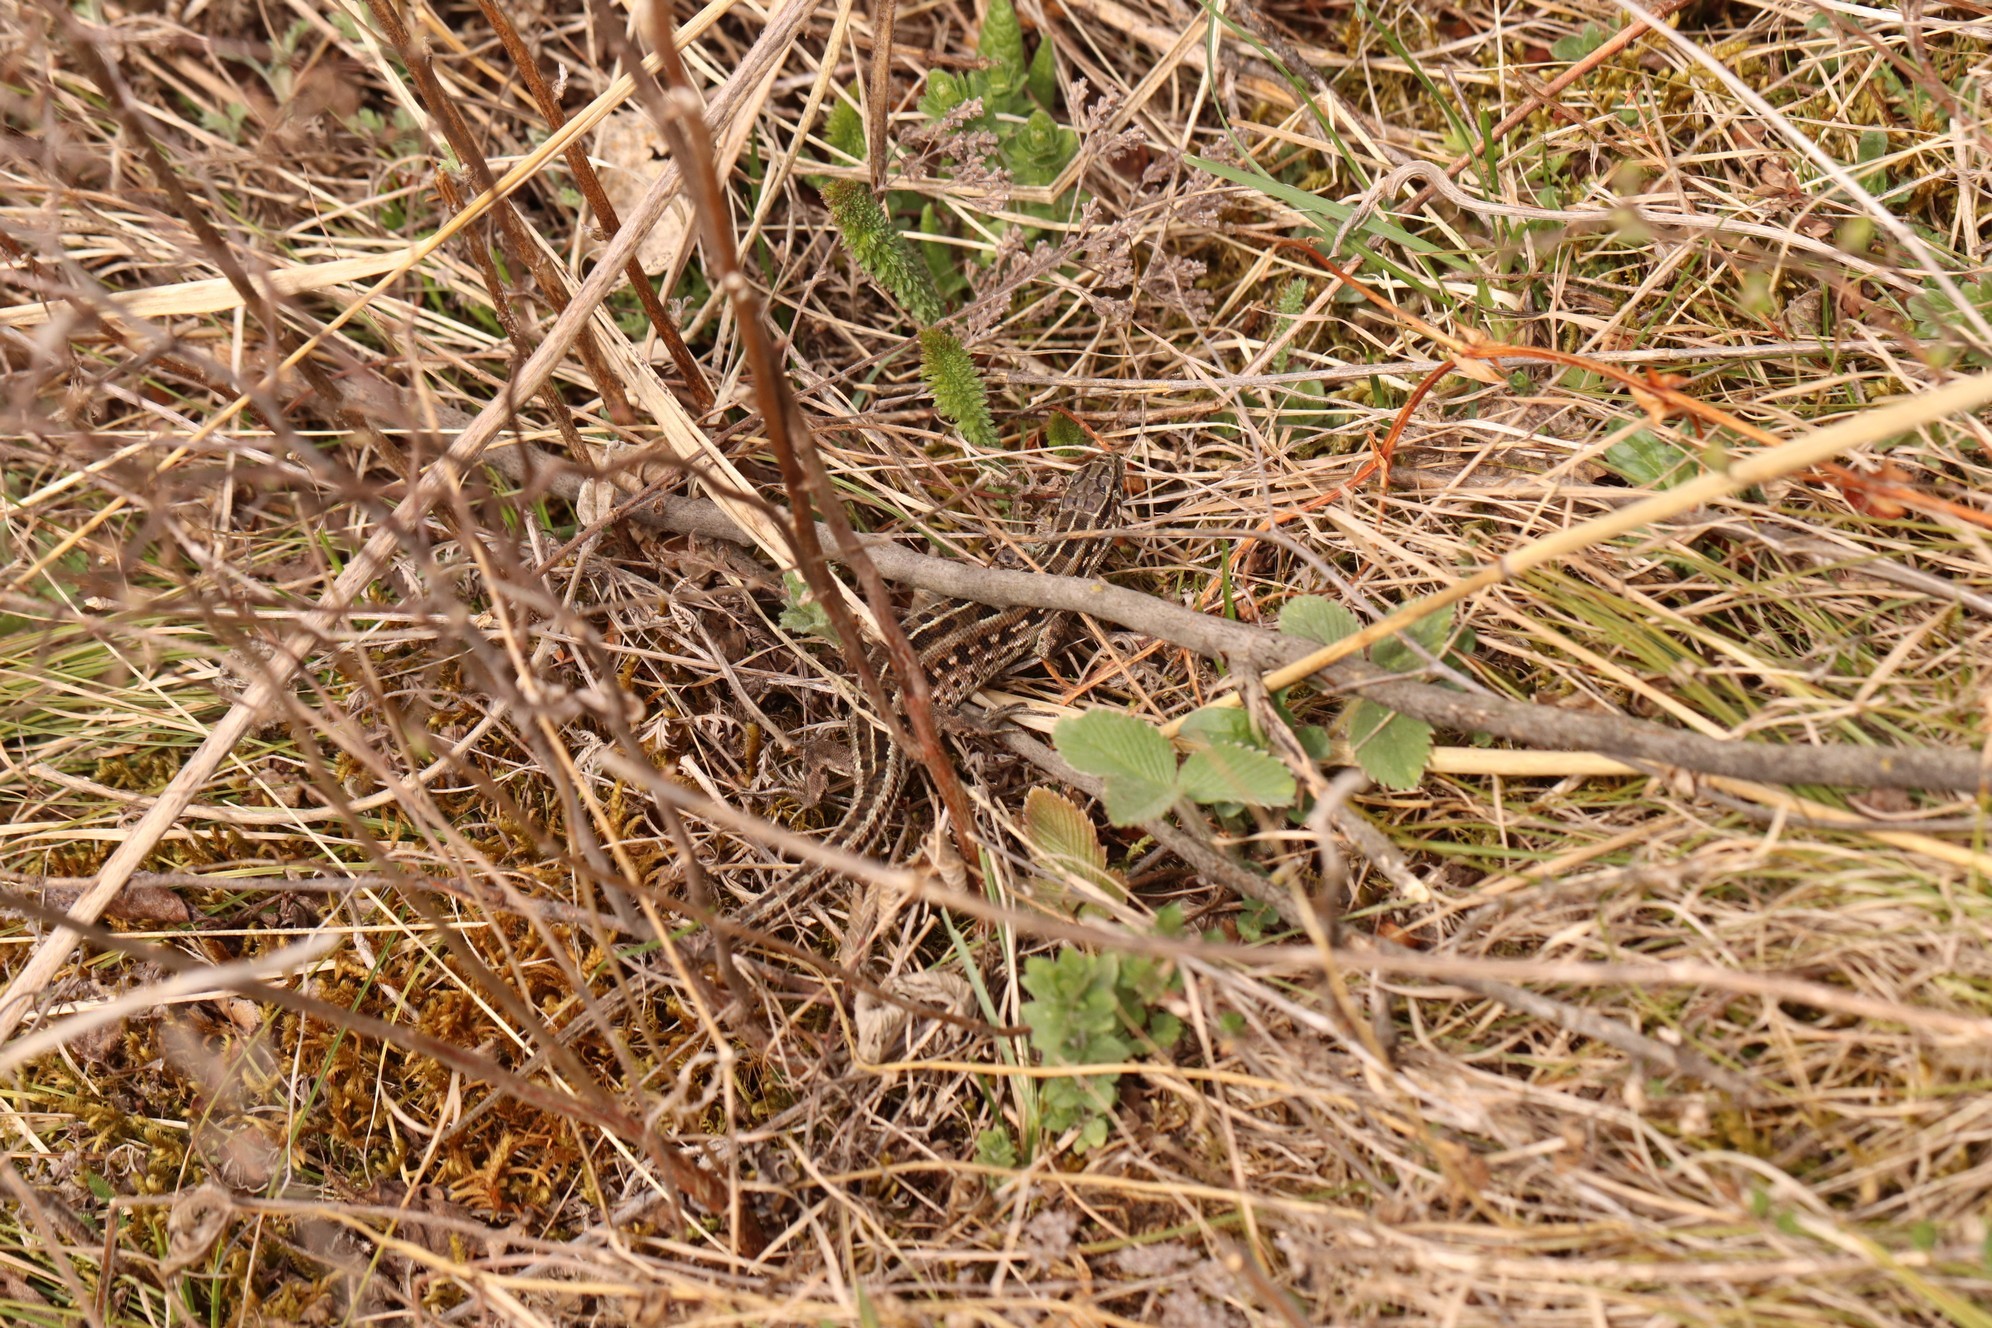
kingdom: Animalia
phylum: Chordata
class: Squamata
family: Lacertidae
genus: Lacerta
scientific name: Lacerta agilis
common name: Sand lizard
